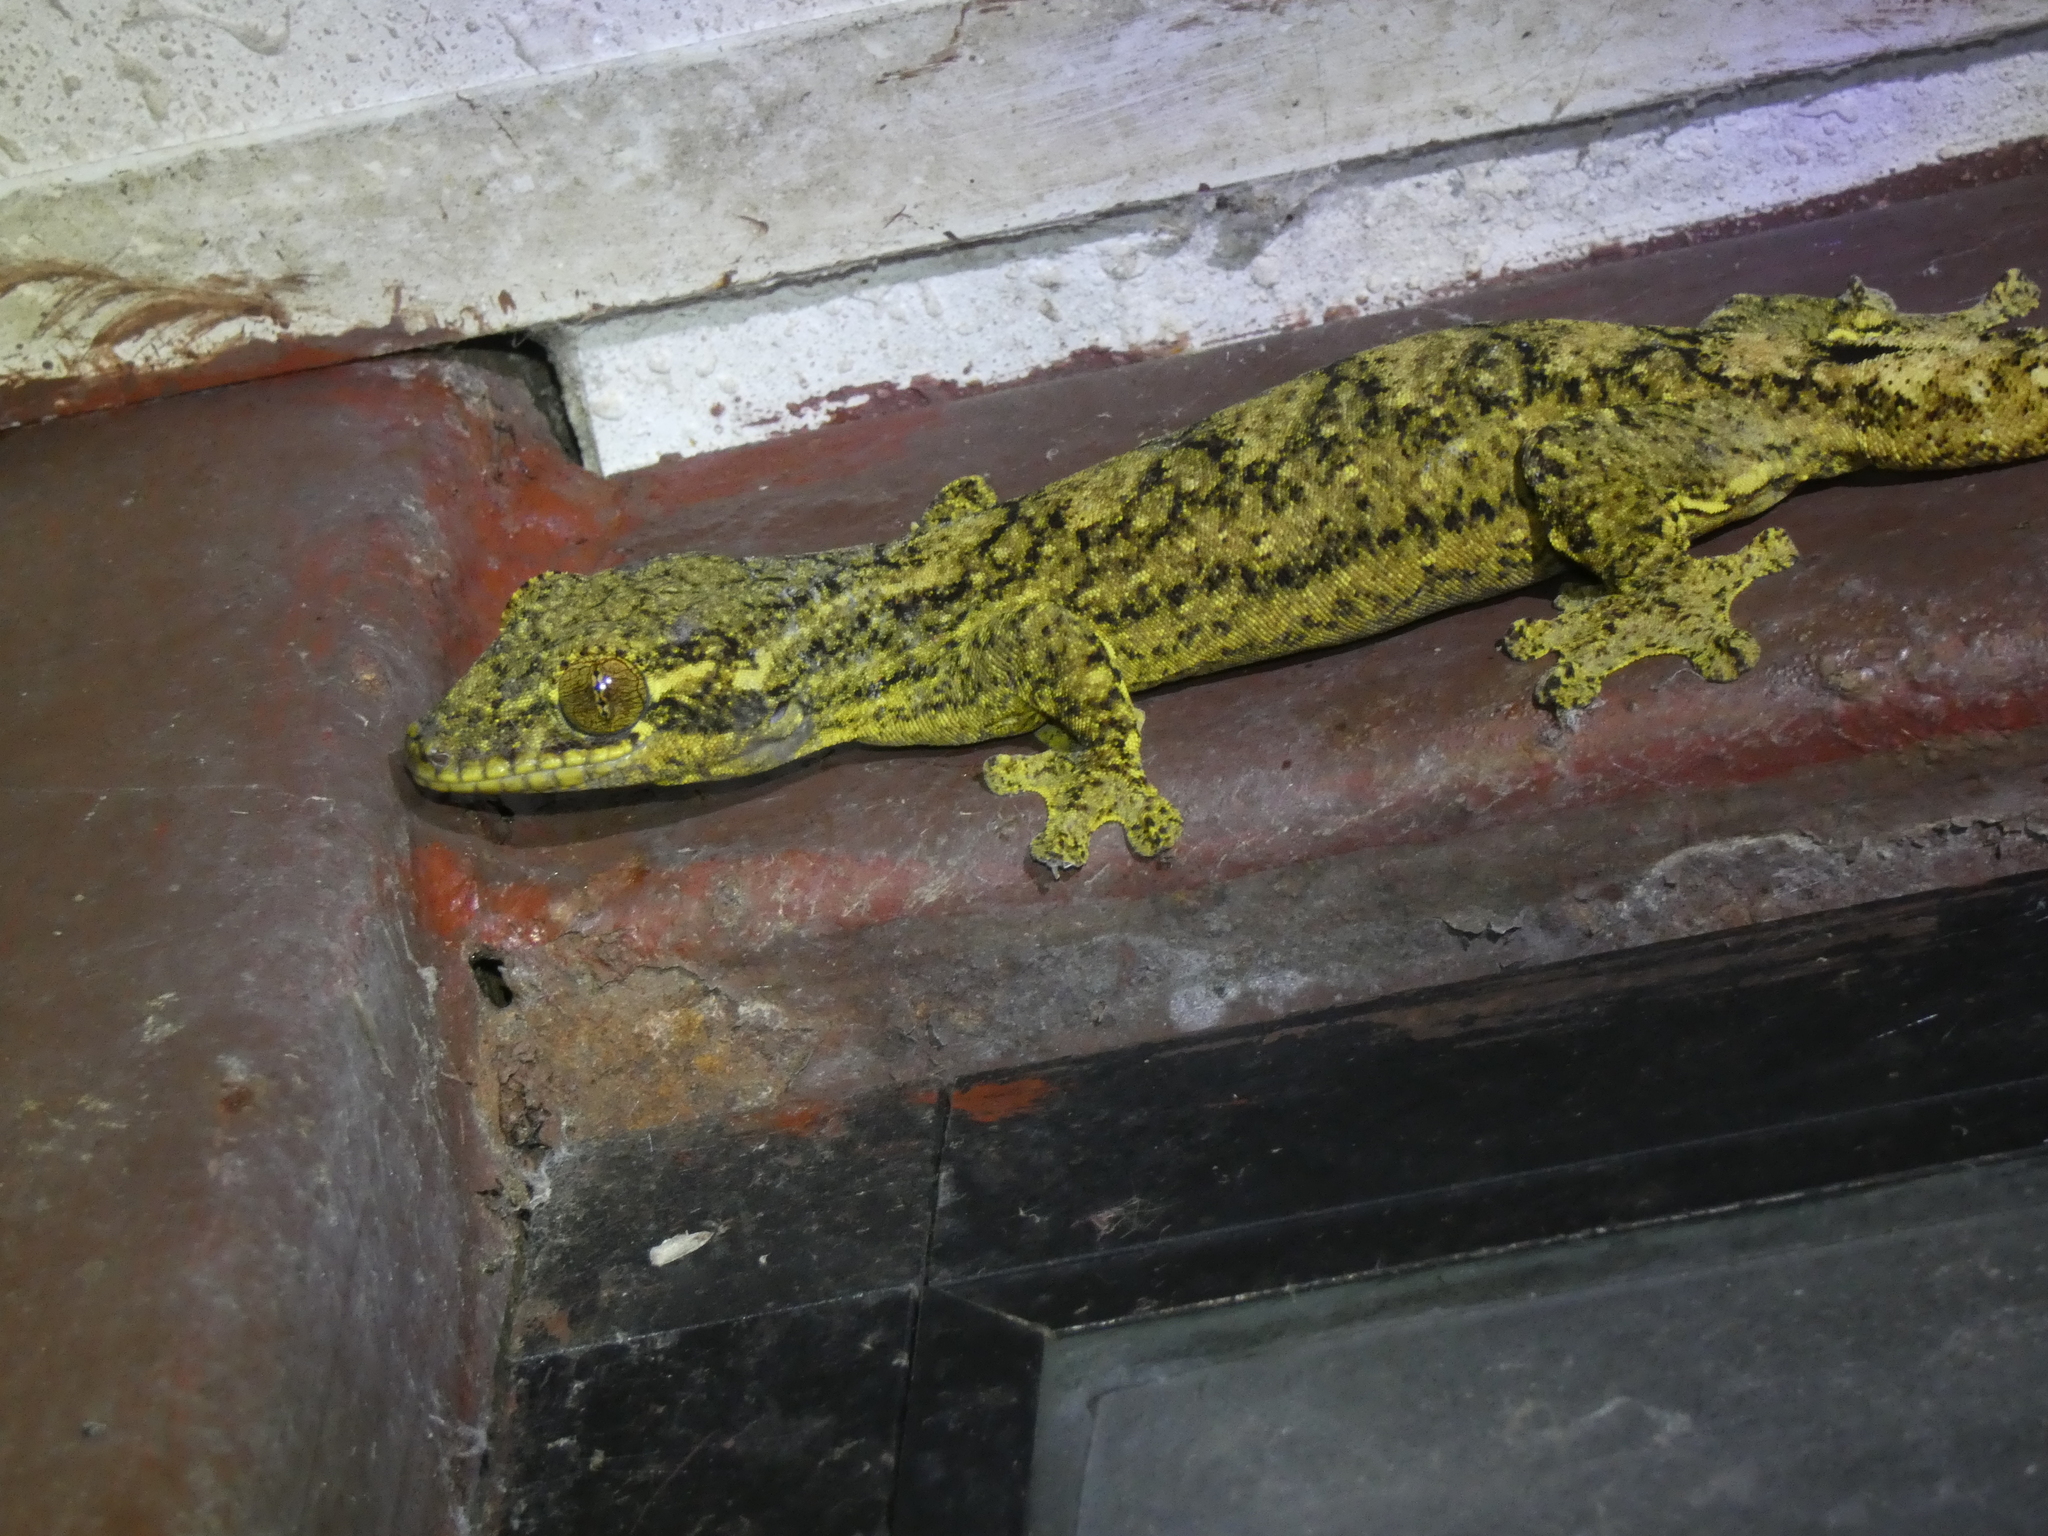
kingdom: Animalia
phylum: Chordata
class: Squamata
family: Phyllodactylidae
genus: Thecadactylus
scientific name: Thecadactylus solimoensis
